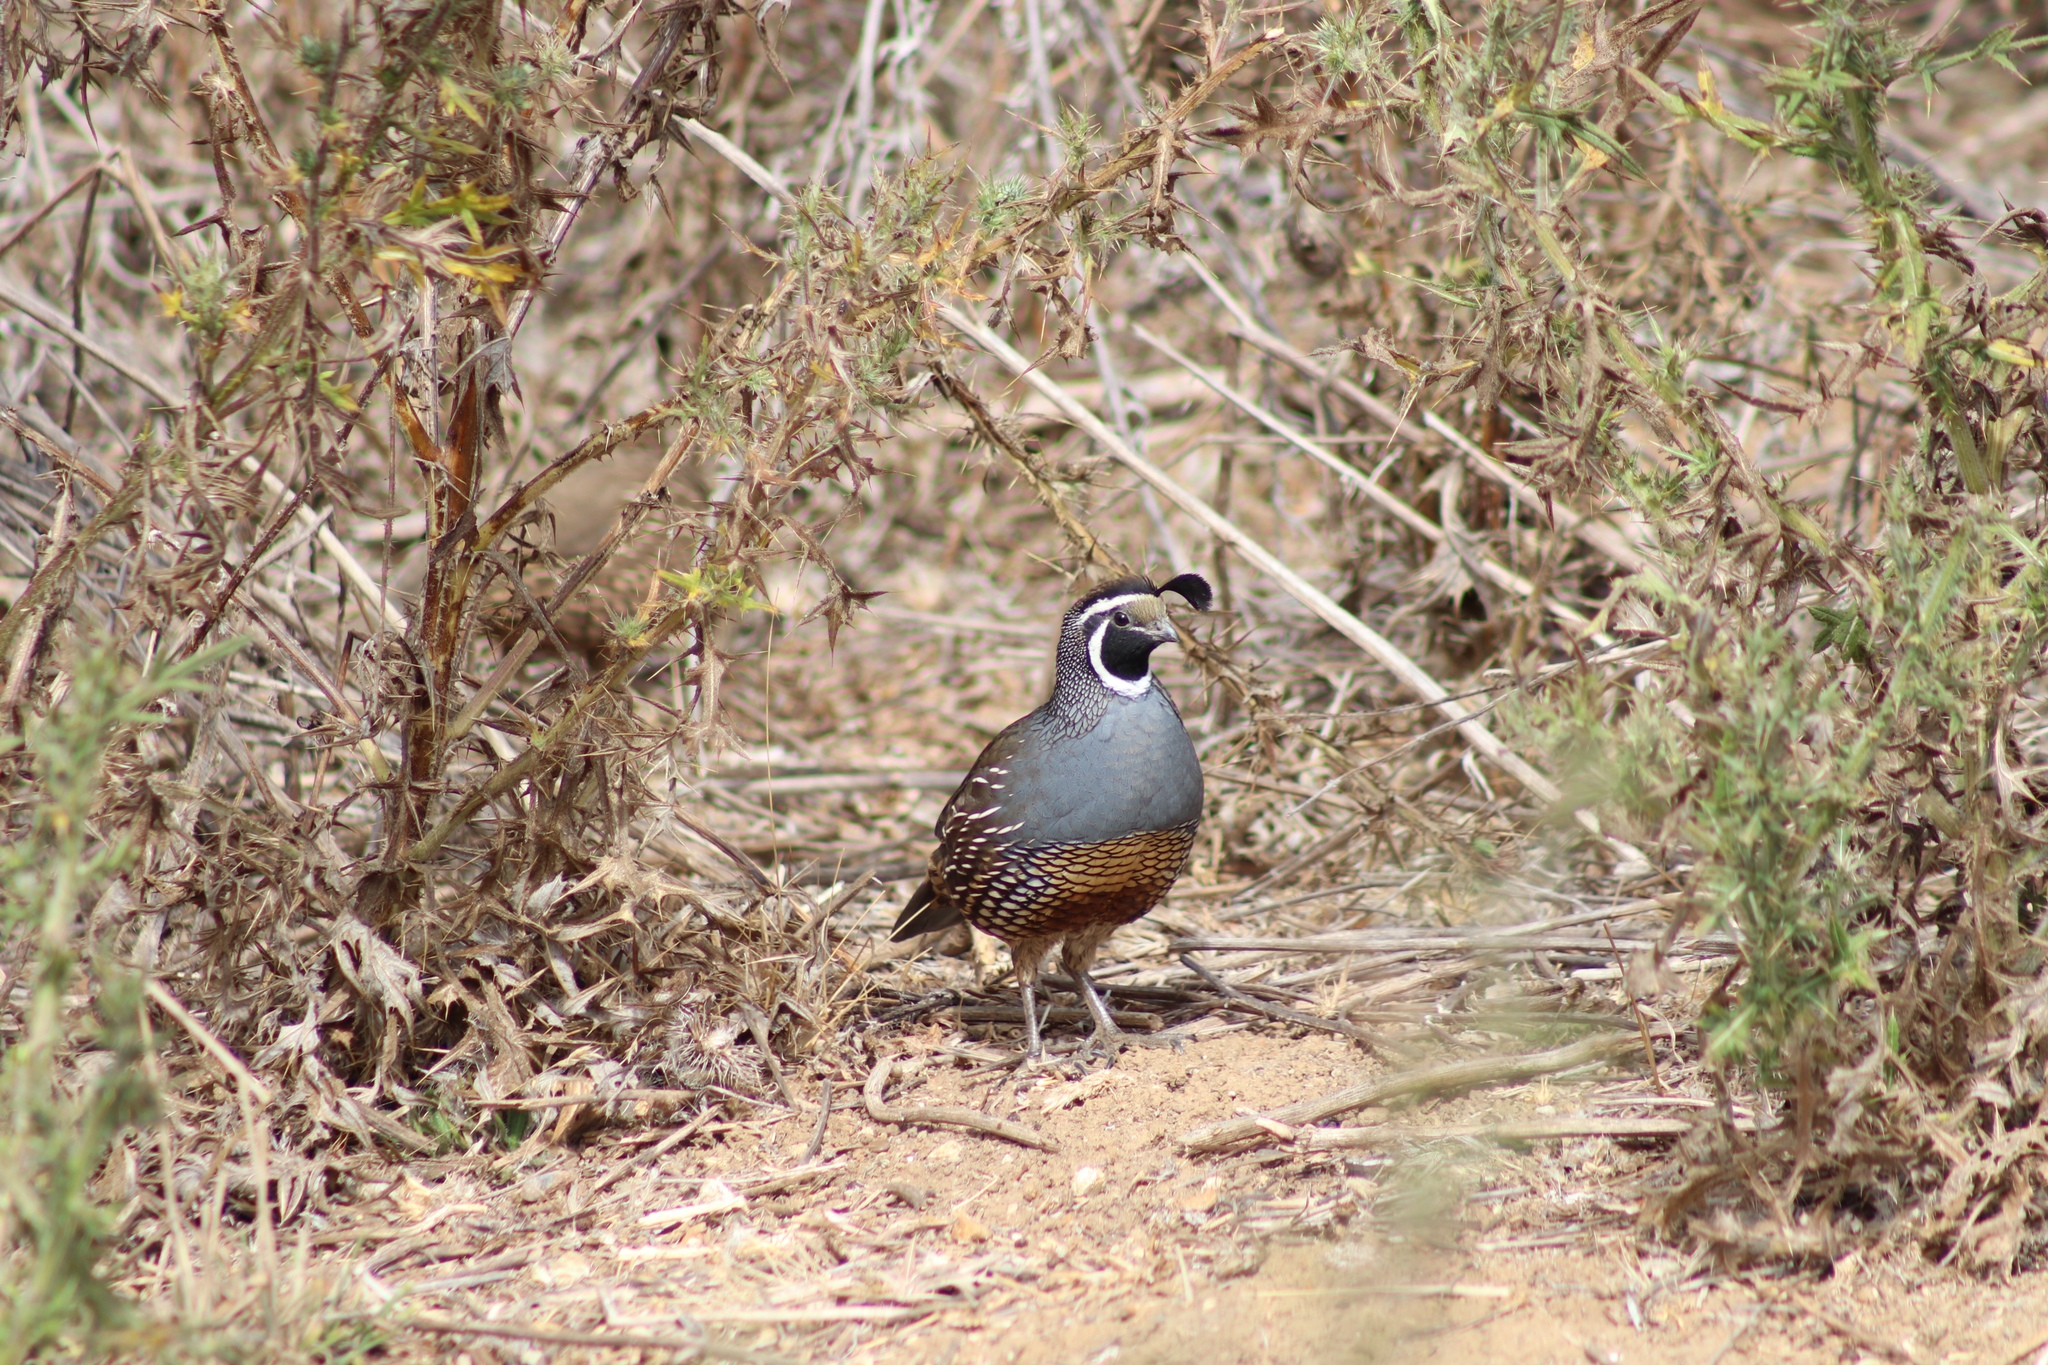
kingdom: Animalia
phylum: Chordata
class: Aves
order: Galliformes
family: Odontophoridae
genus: Callipepla
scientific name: Callipepla californica
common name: California quail
